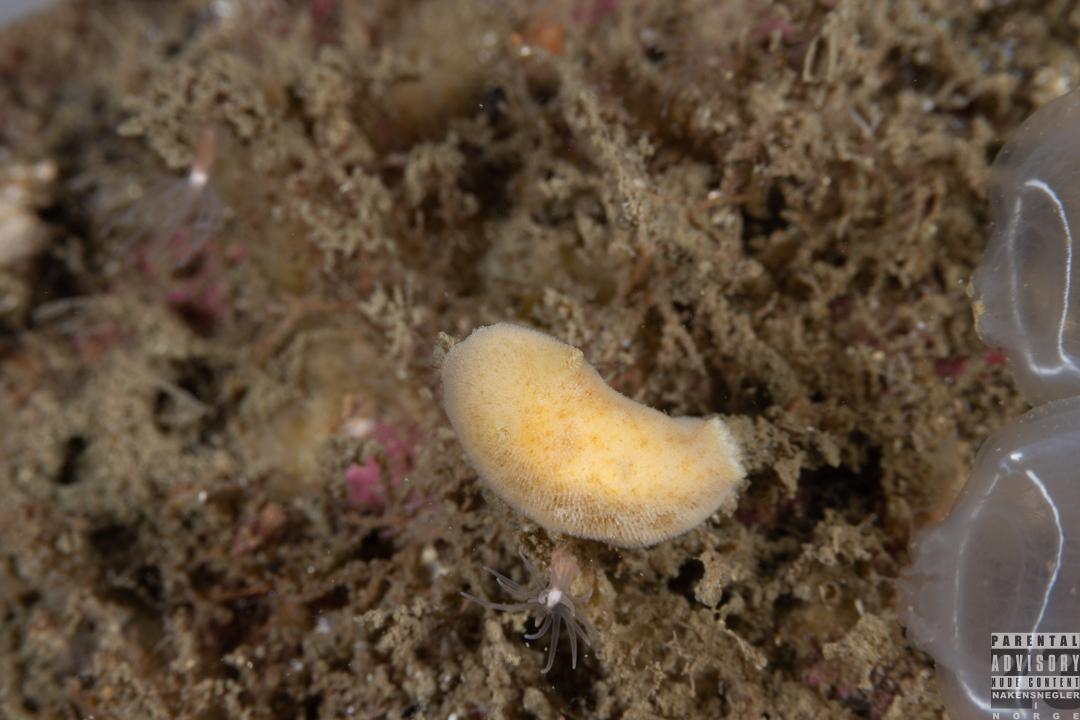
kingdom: Animalia
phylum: Mollusca
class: Gastropoda
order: Nudibranchia
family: Discodorididae
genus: Jorunna
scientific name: Jorunna tomentosa
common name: Grey sea slug
